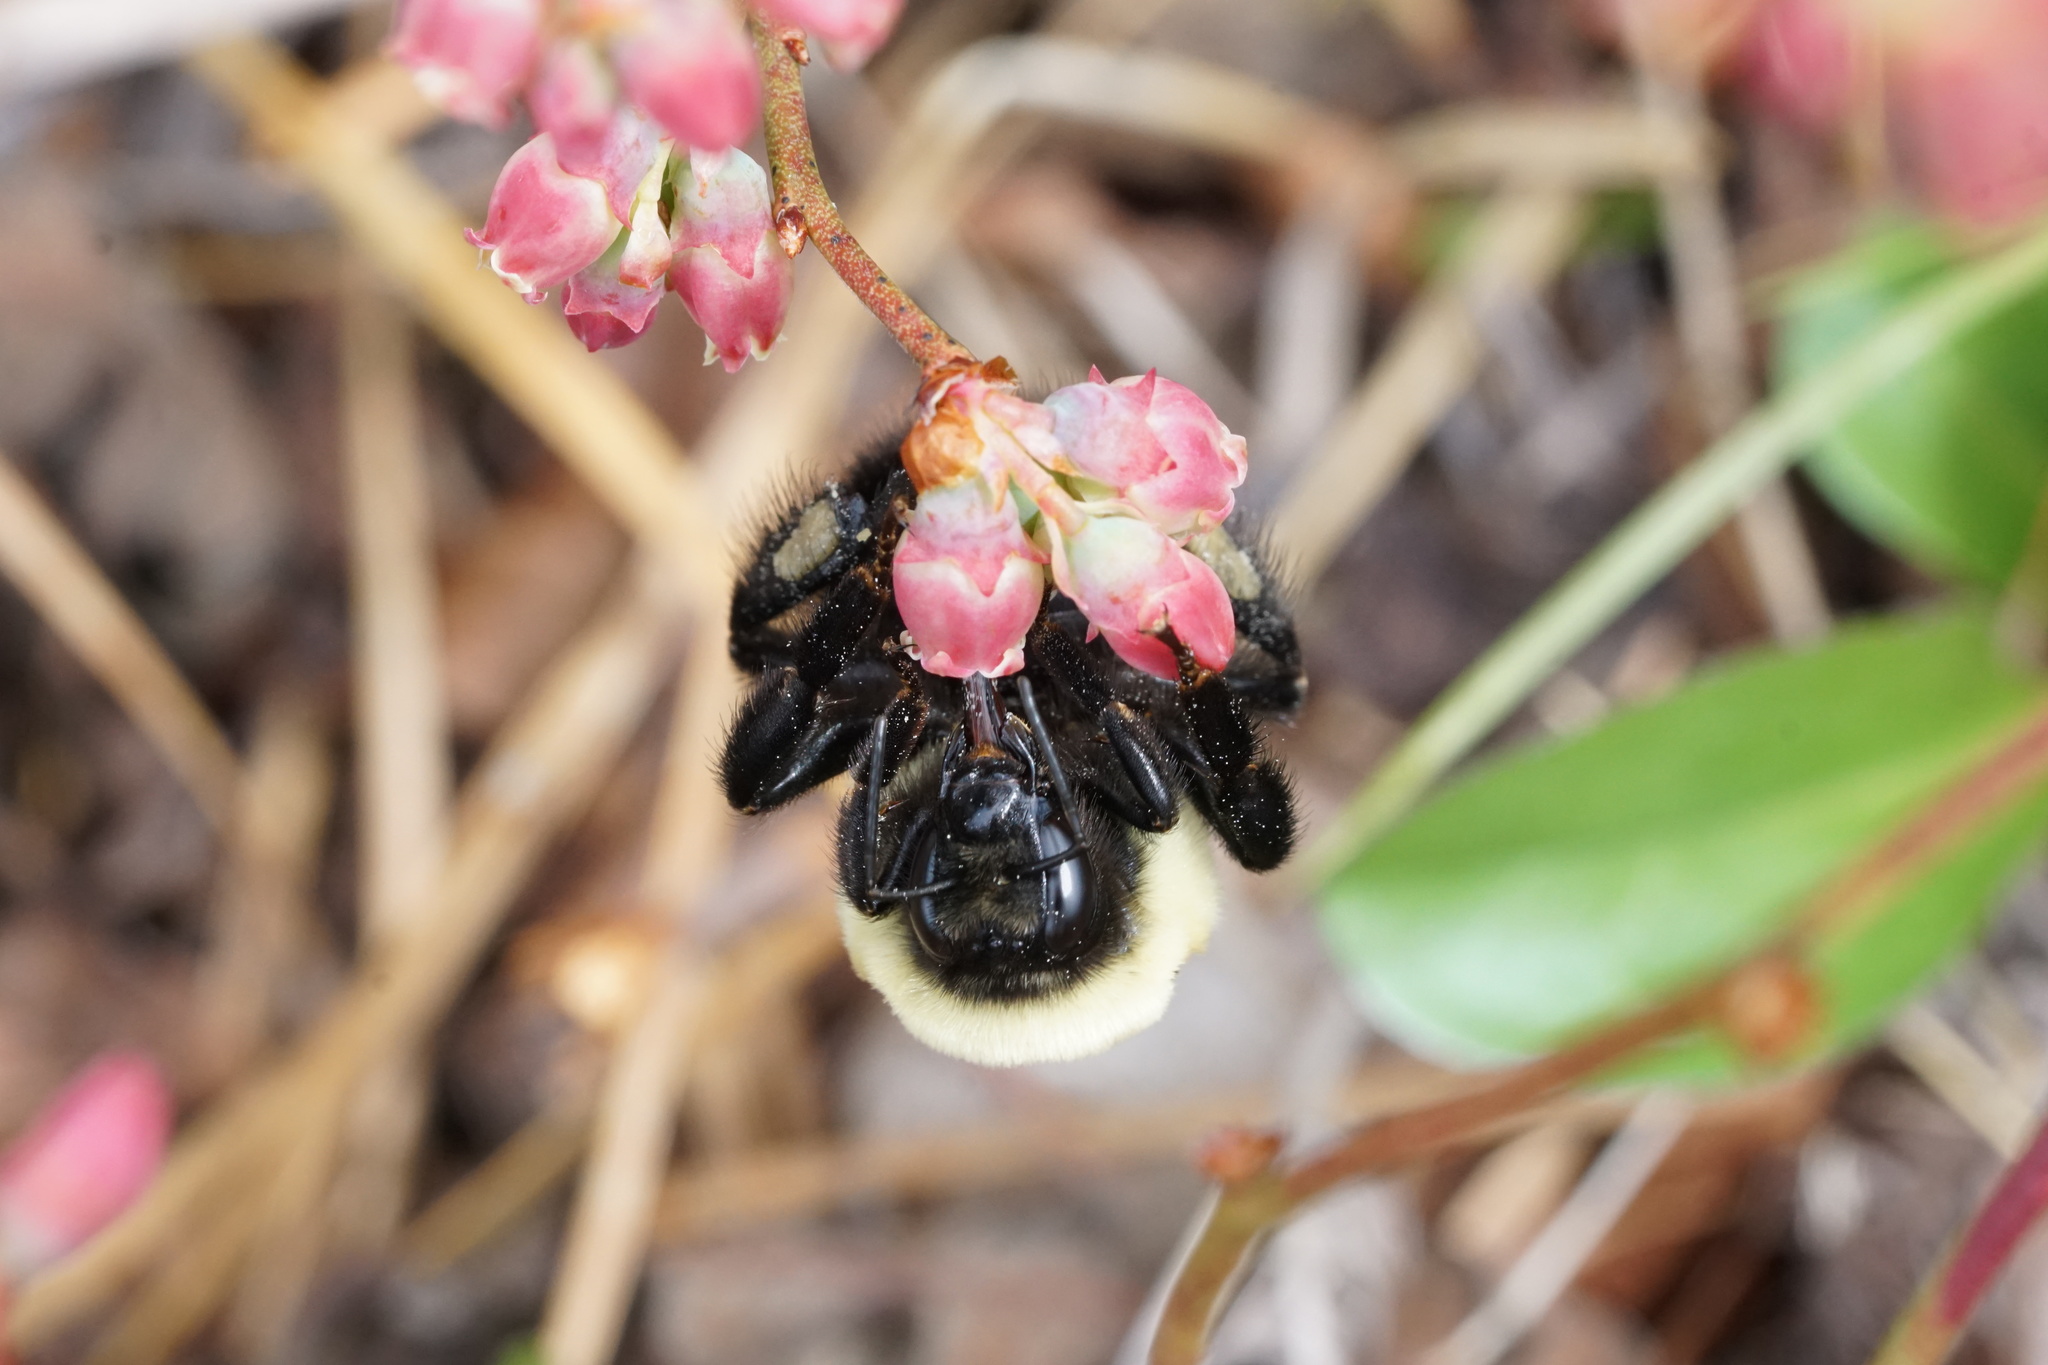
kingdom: Animalia
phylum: Arthropoda
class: Insecta
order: Hymenoptera
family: Apidae
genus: Bombus
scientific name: Bombus griseocollis
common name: Brown-belted bumble bee
